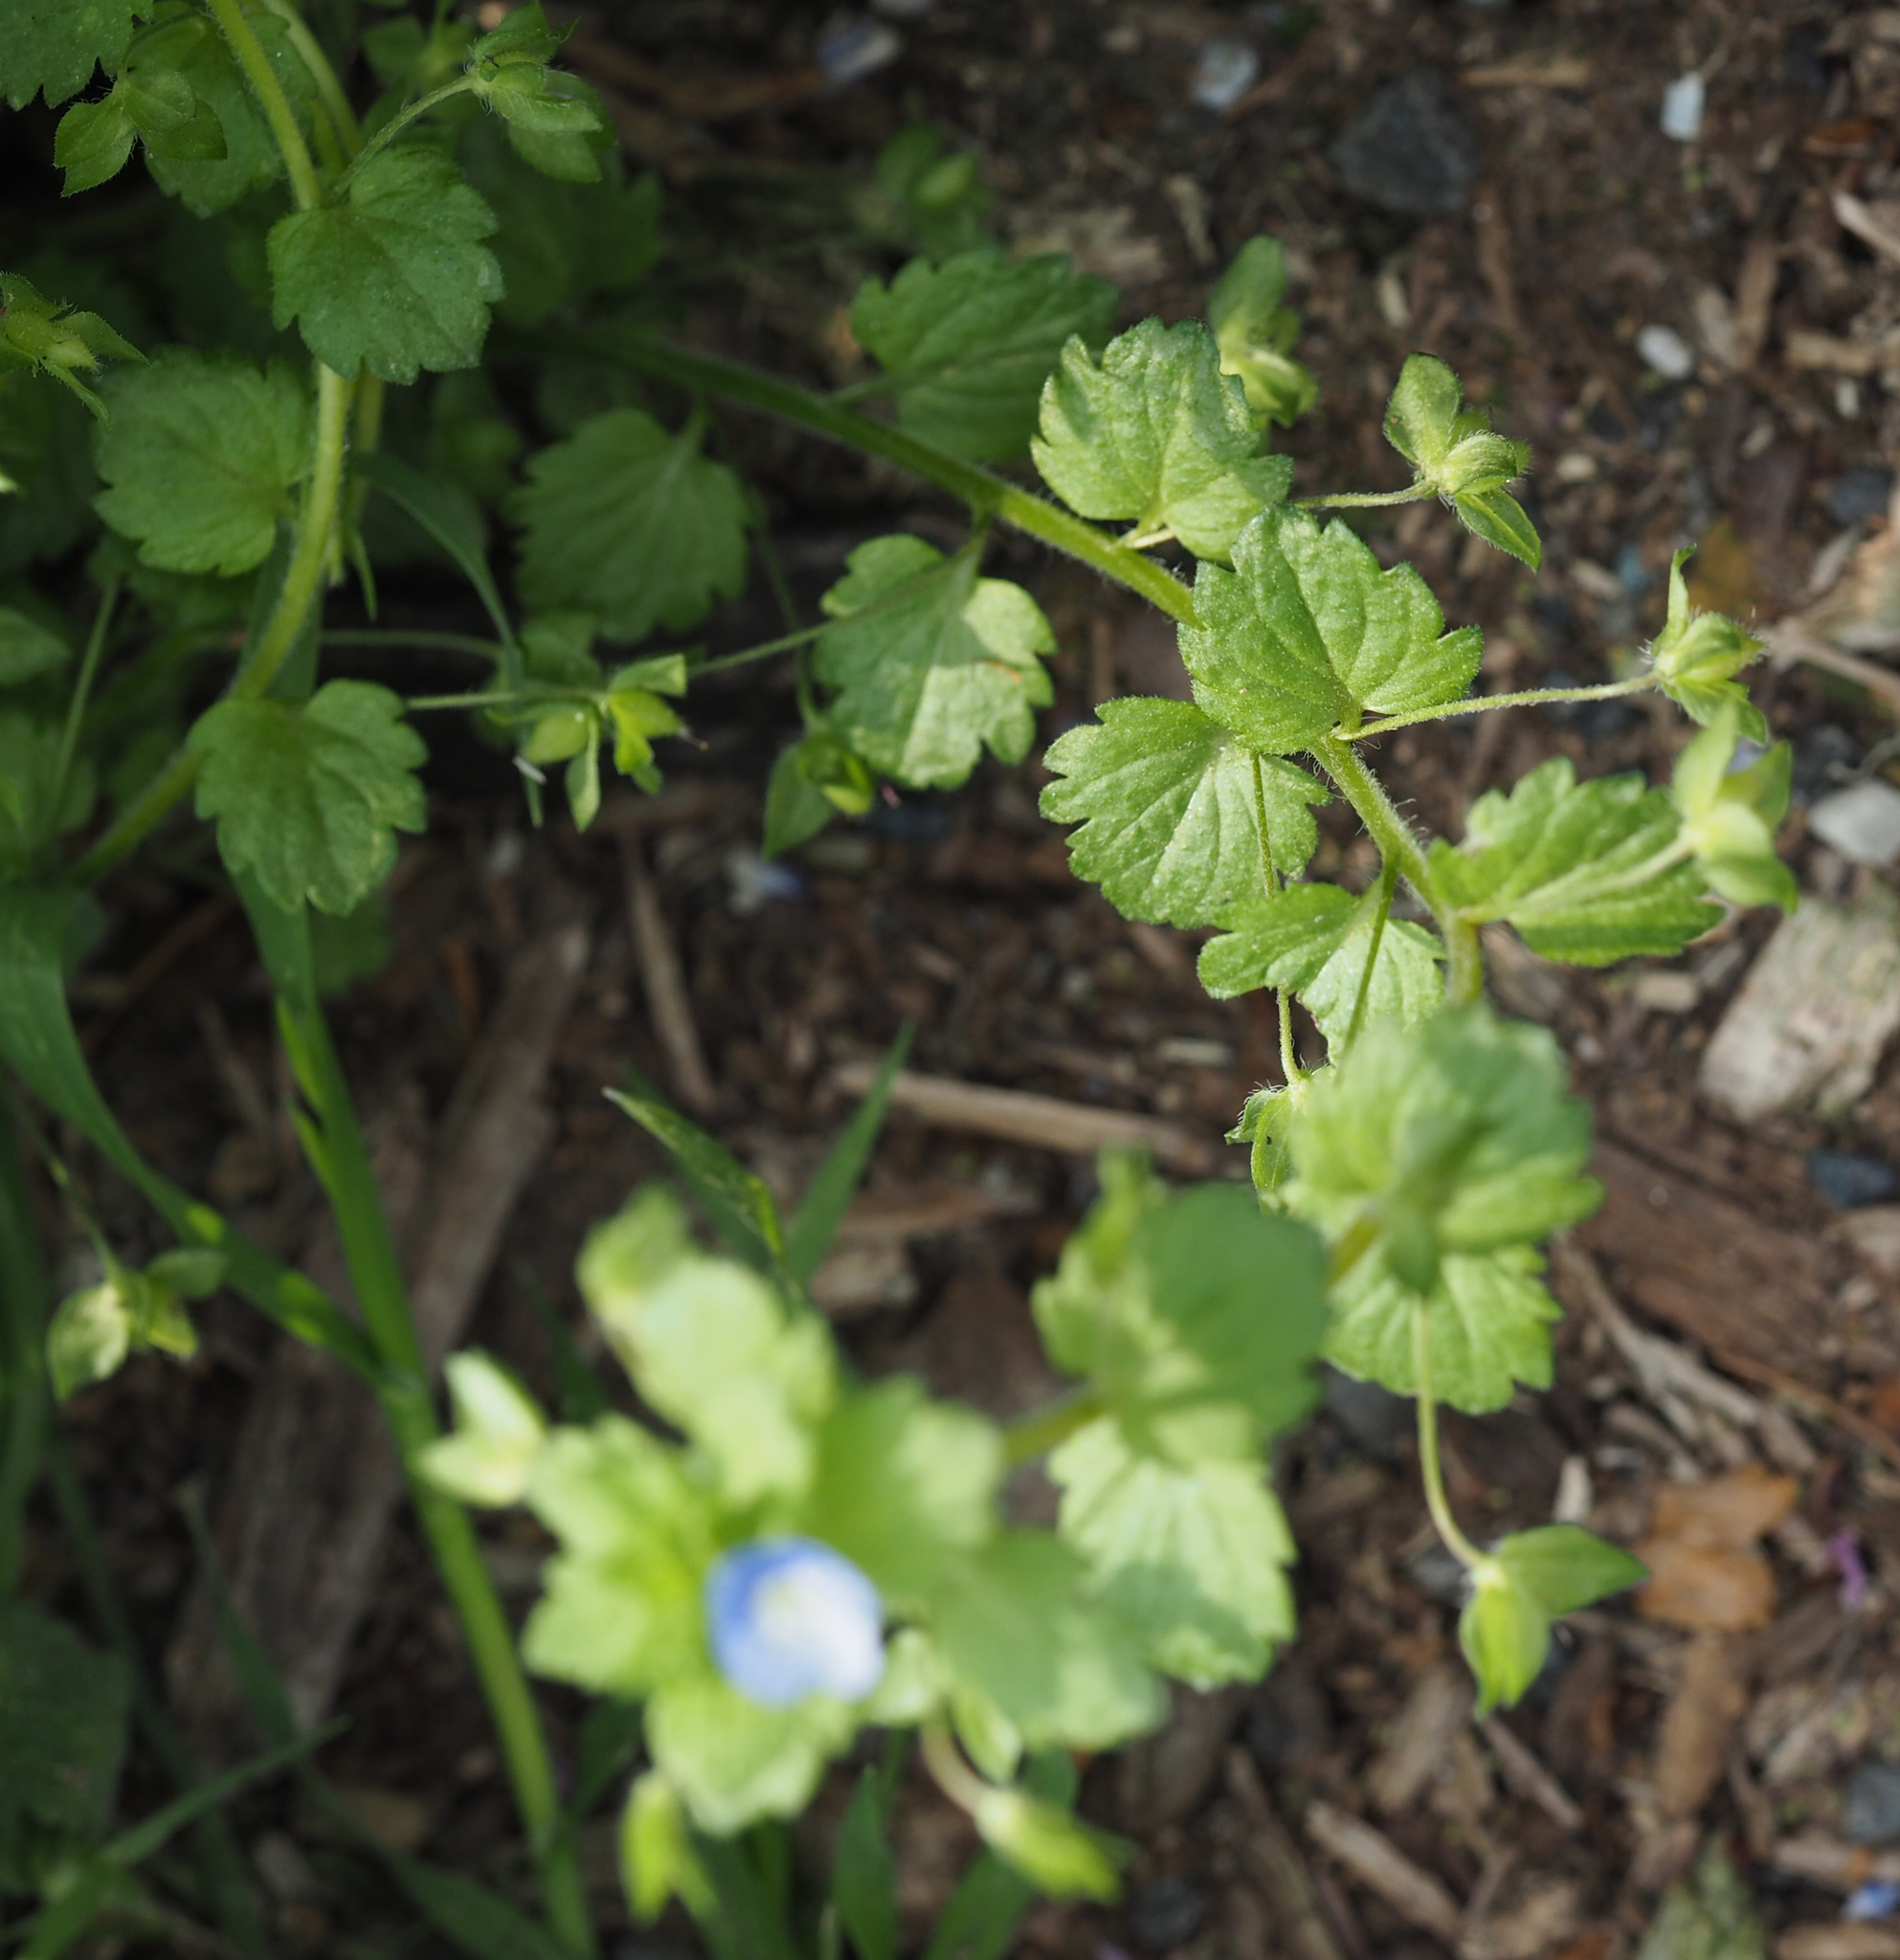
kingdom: Plantae
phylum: Tracheophyta
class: Magnoliopsida
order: Lamiales
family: Plantaginaceae
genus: Veronica
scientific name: Veronica persica
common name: Common field-speedwell
